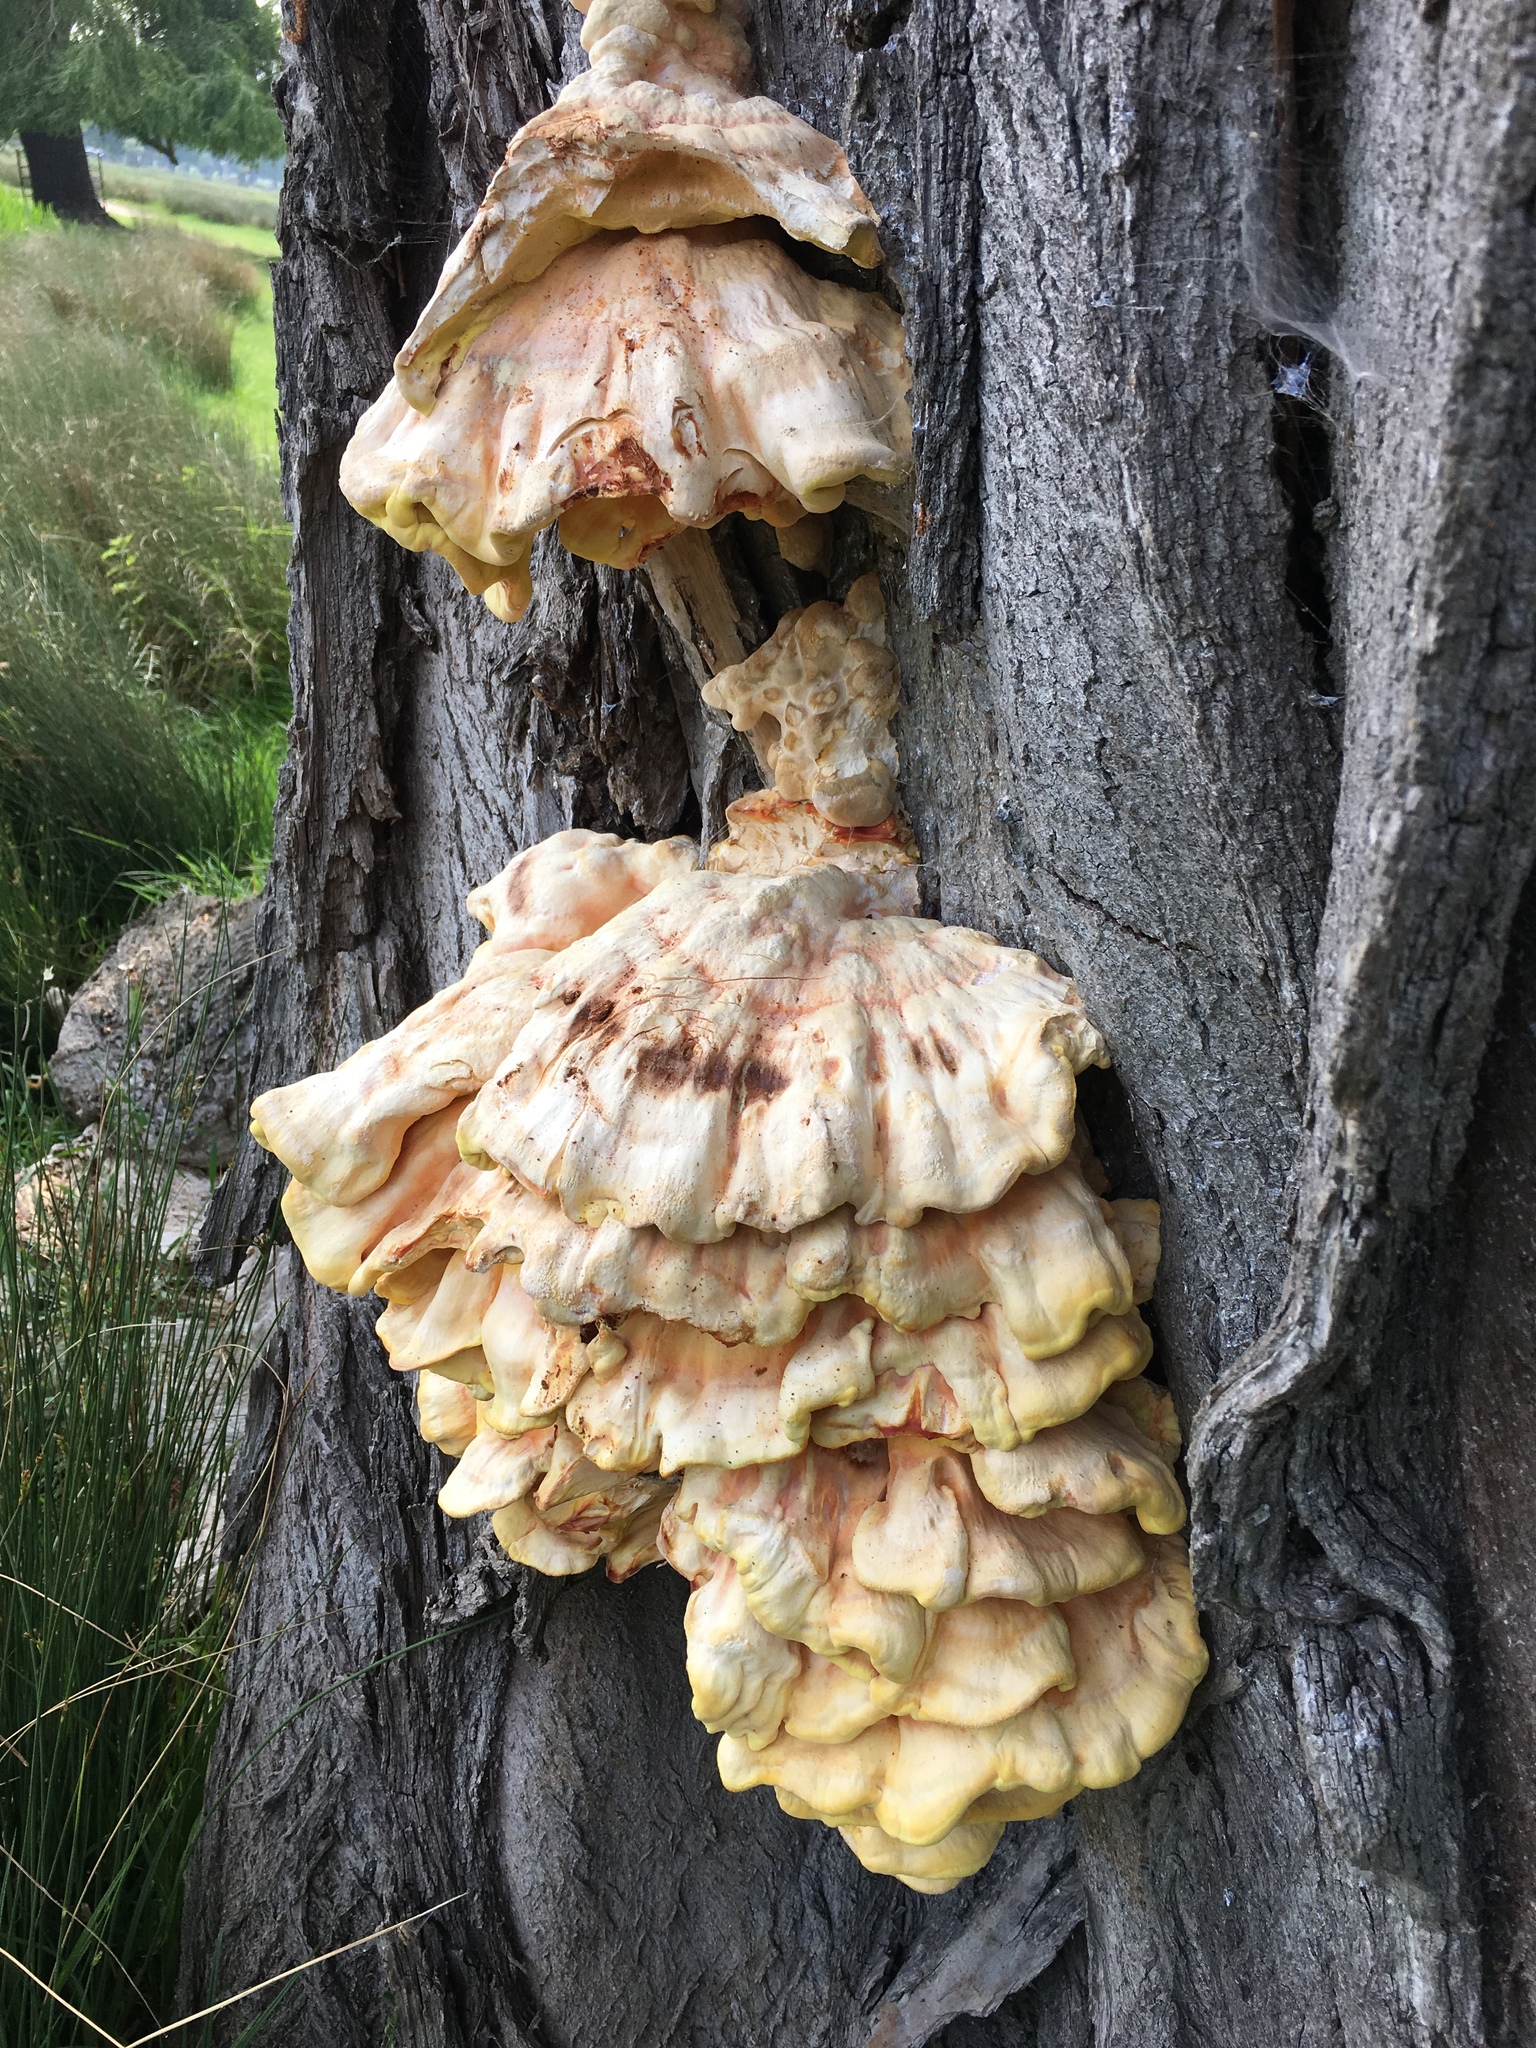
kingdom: Fungi
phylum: Basidiomycota
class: Agaricomycetes
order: Polyporales
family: Laetiporaceae
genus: Laetiporus
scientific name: Laetiporus sulphureus
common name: Chicken of the woods
